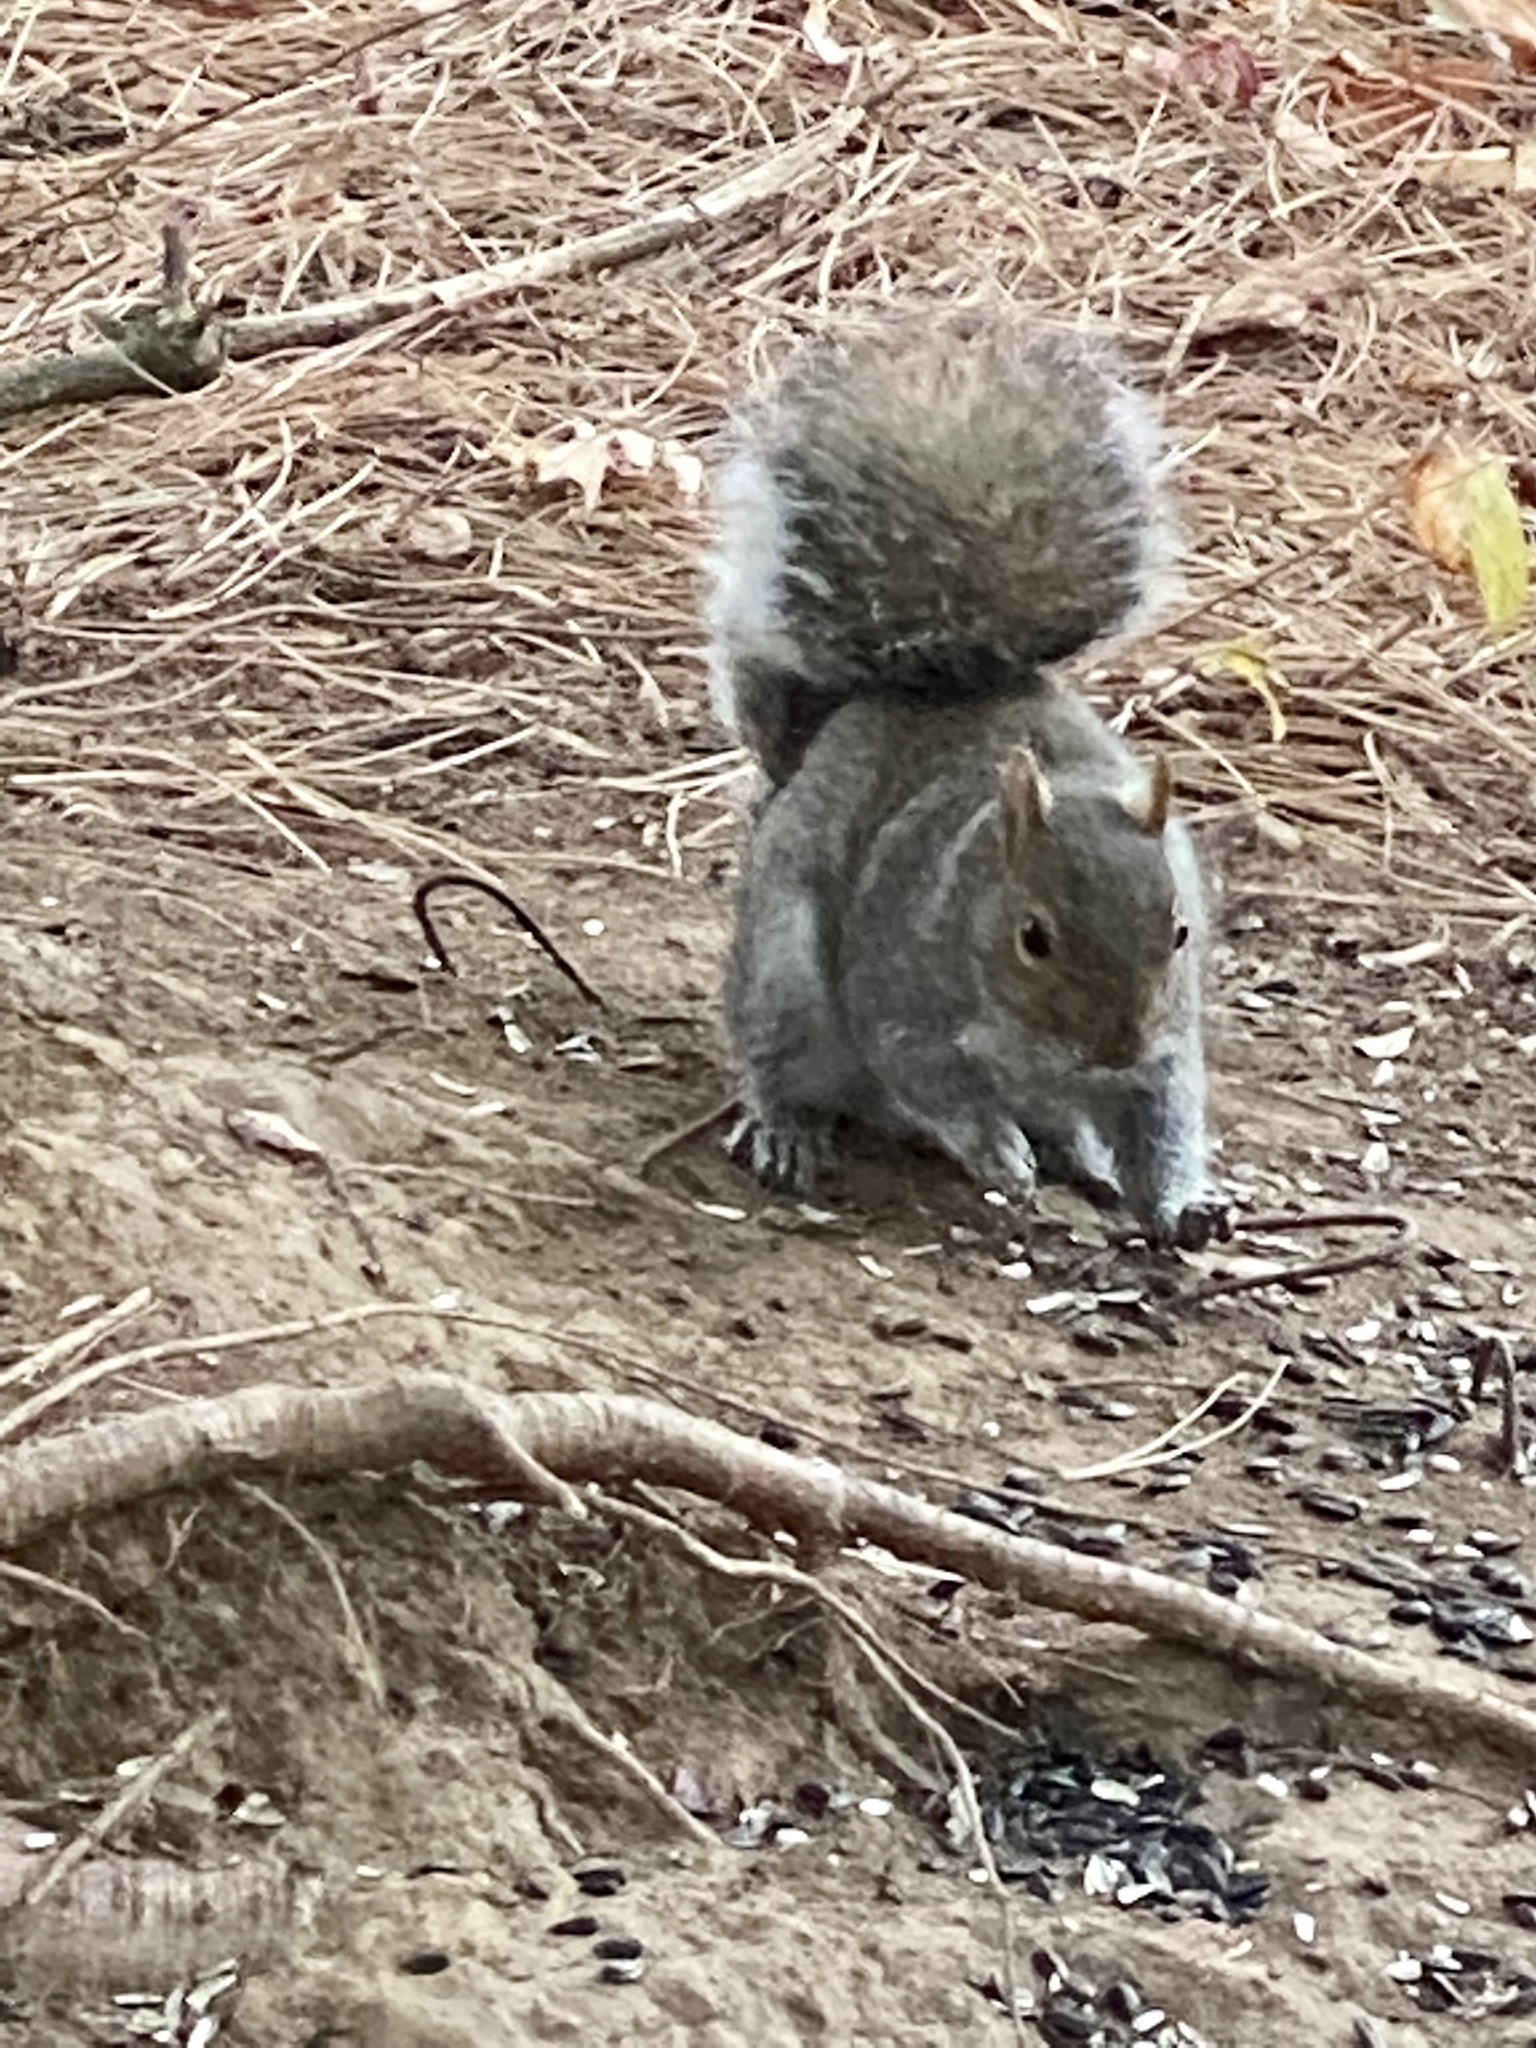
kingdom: Animalia
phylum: Chordata
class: Mammalia
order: Rodentia
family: Sciuridae
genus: Sciurus
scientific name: Sciurus carolinensis
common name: Eastern gray squirrel
